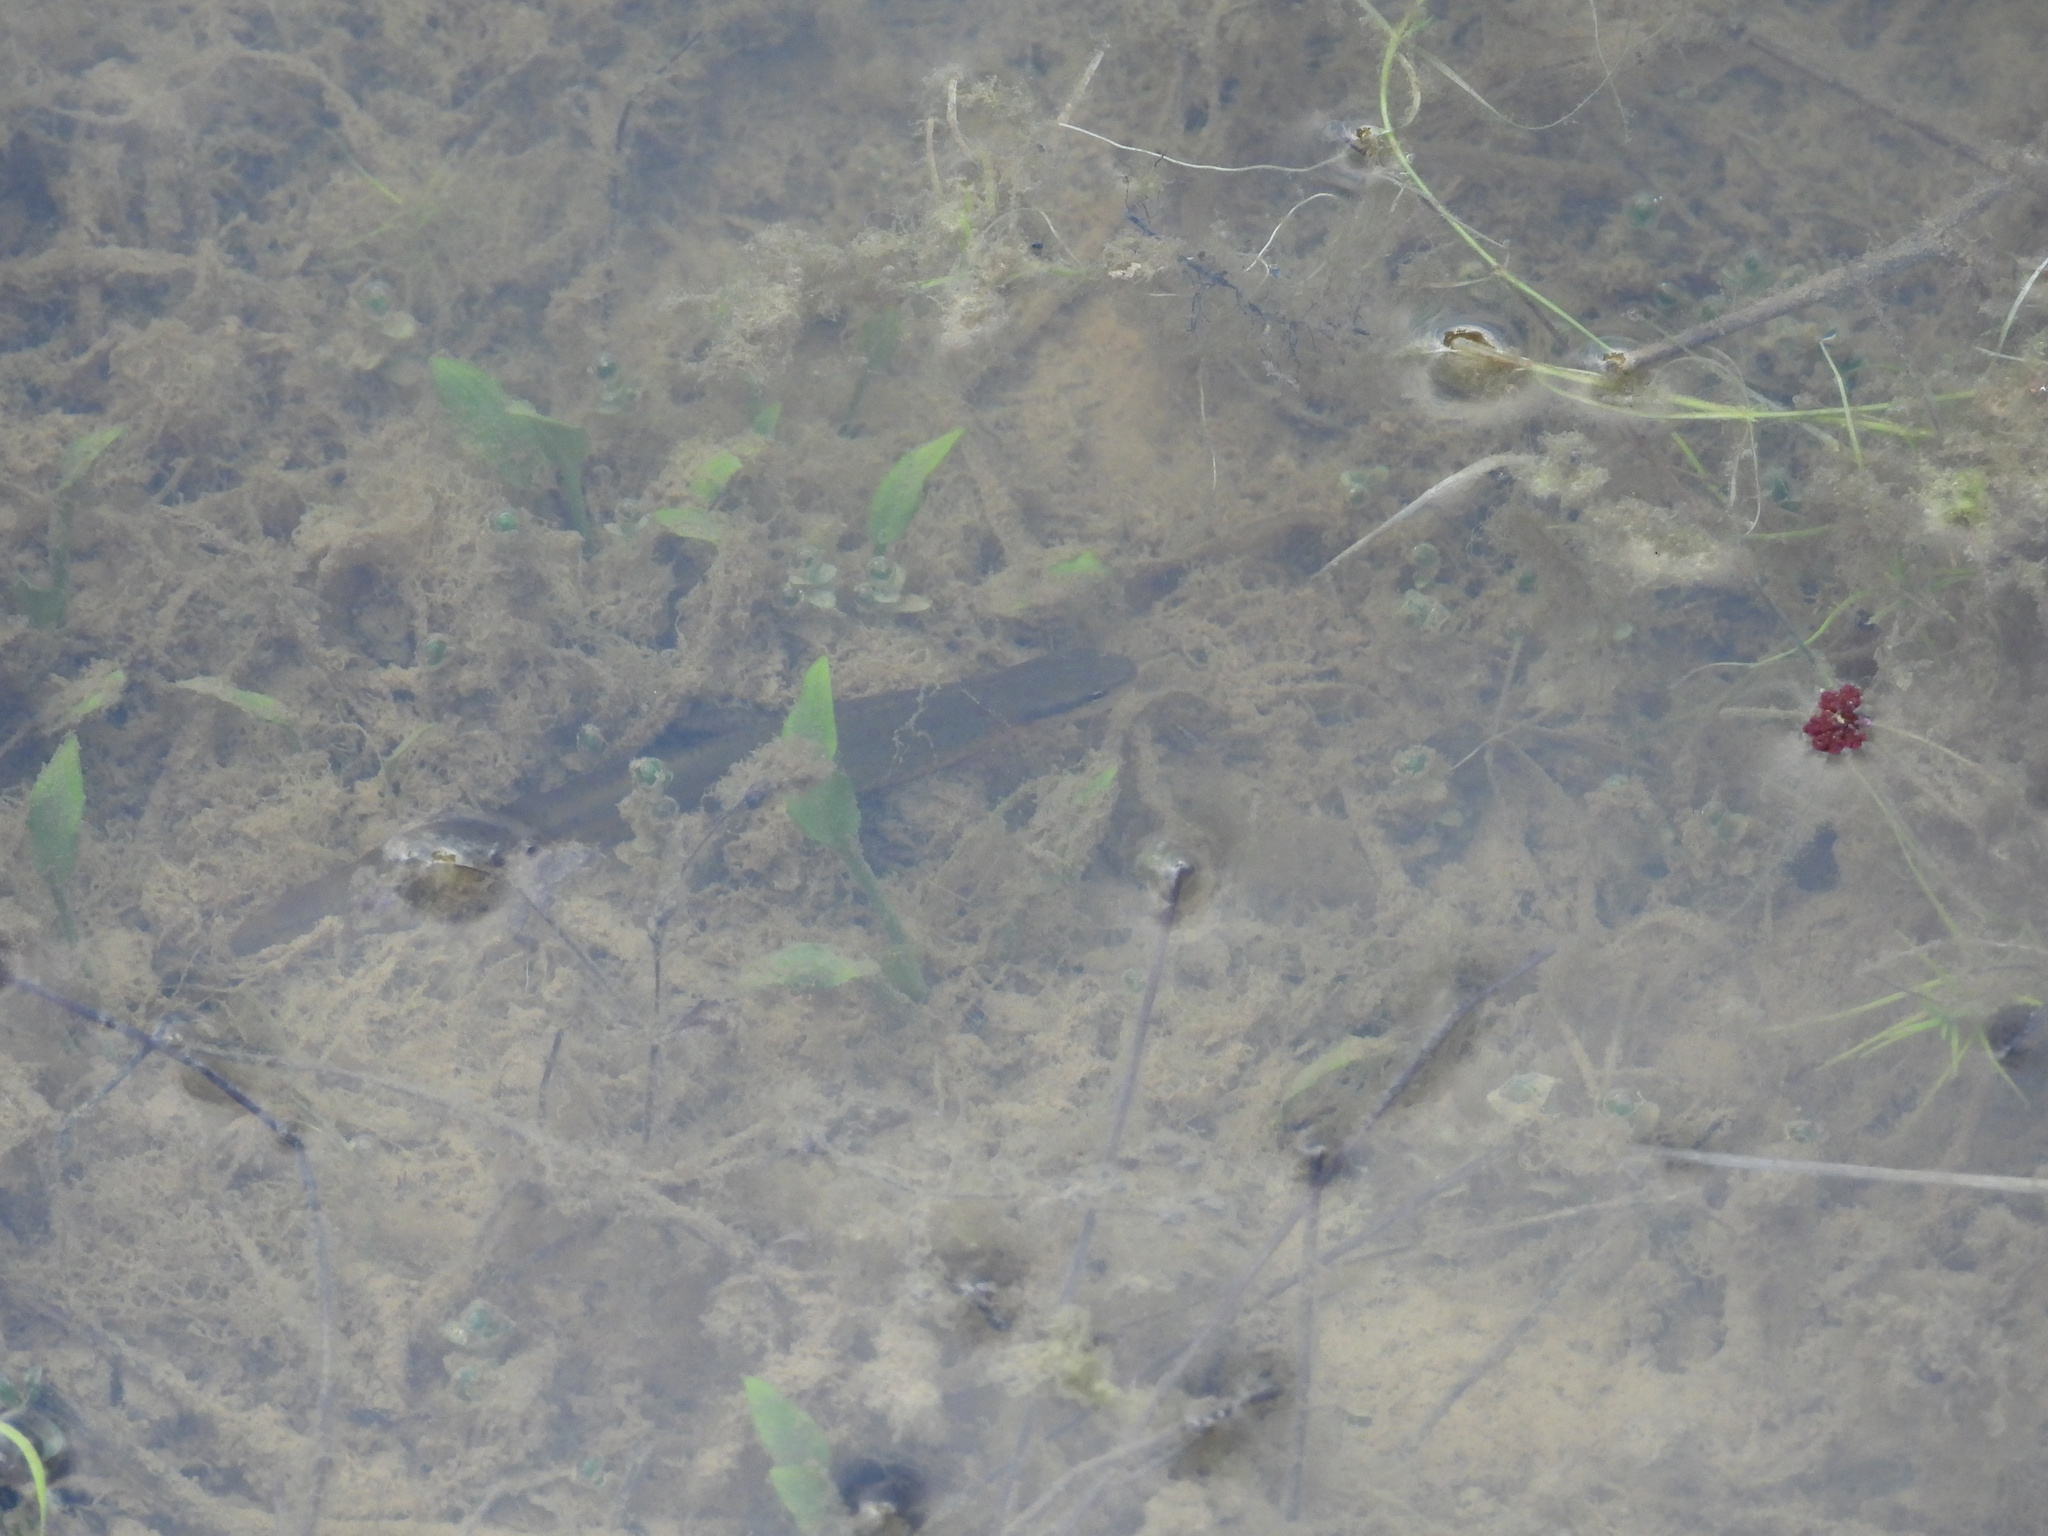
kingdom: Animalia
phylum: Chordata
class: Amphibia
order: Caudata
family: Salamandridae
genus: Notophthalmus
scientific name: Notophthalmus viridescens
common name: Eastern newt
